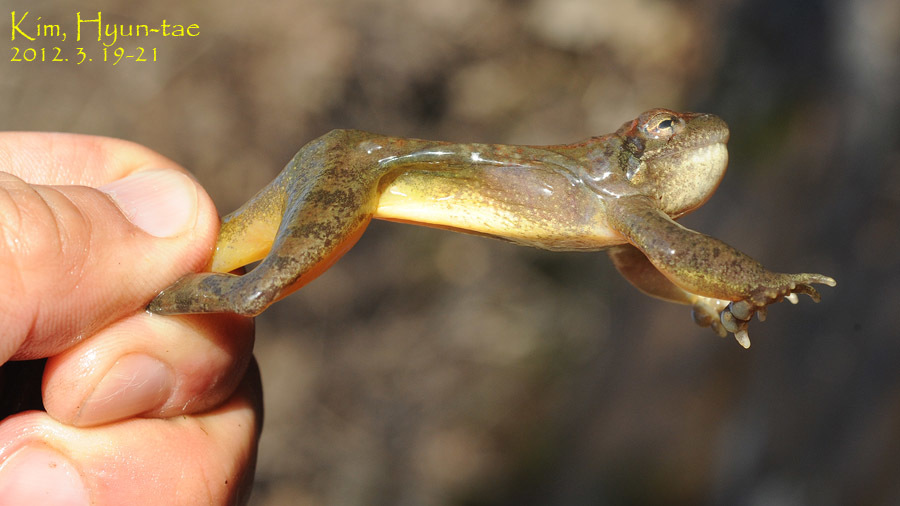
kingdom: Animalia
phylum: Chordata
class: Amphibia
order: Anura
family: Ranidae
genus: Rana
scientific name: Rana huanrenensis
